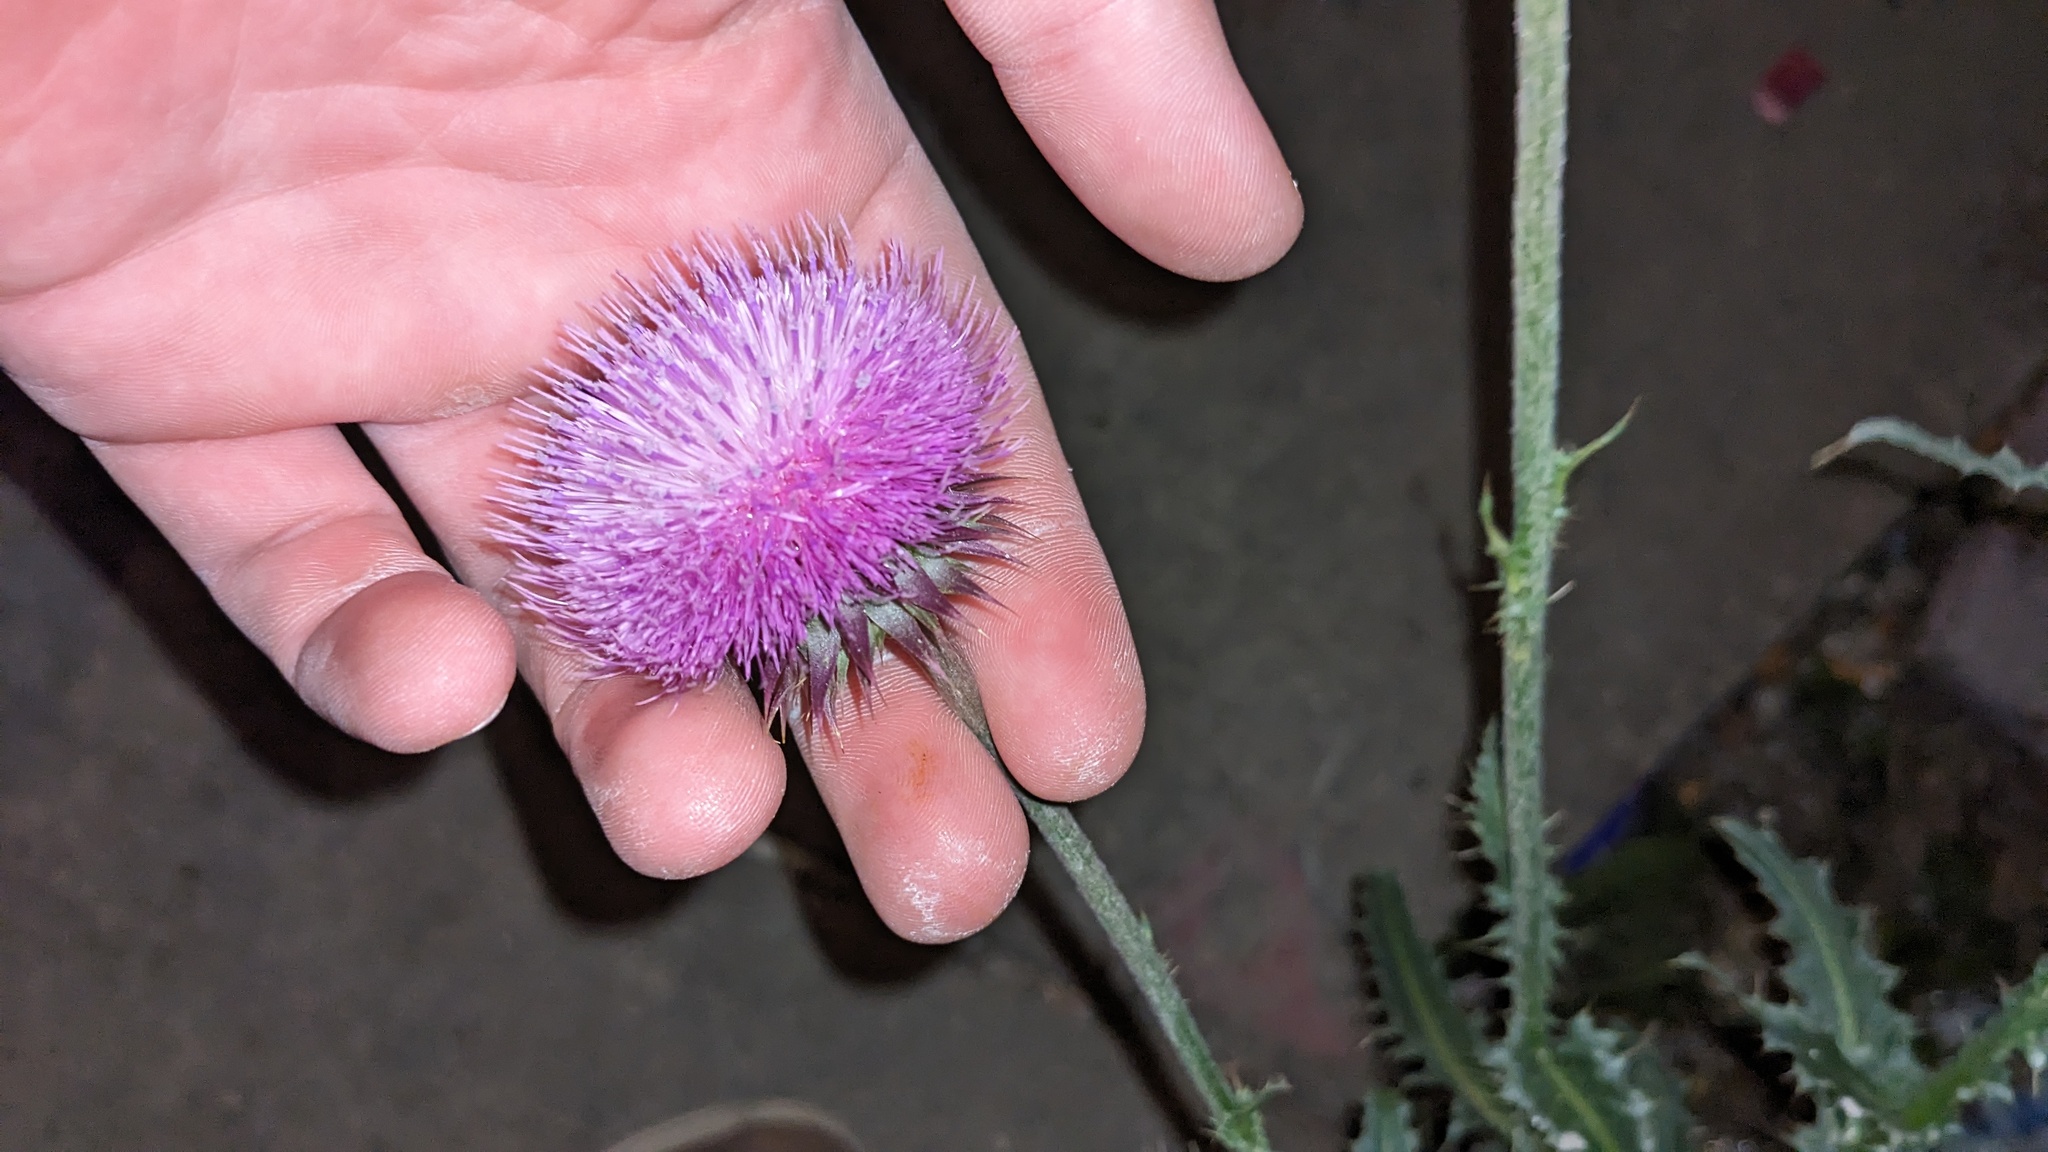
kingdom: Plantae
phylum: Tracheophyta
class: Magnoliopsida
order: Asterales
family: Asteraceae
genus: Carduus
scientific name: Carduus nutans
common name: Musk thistle
